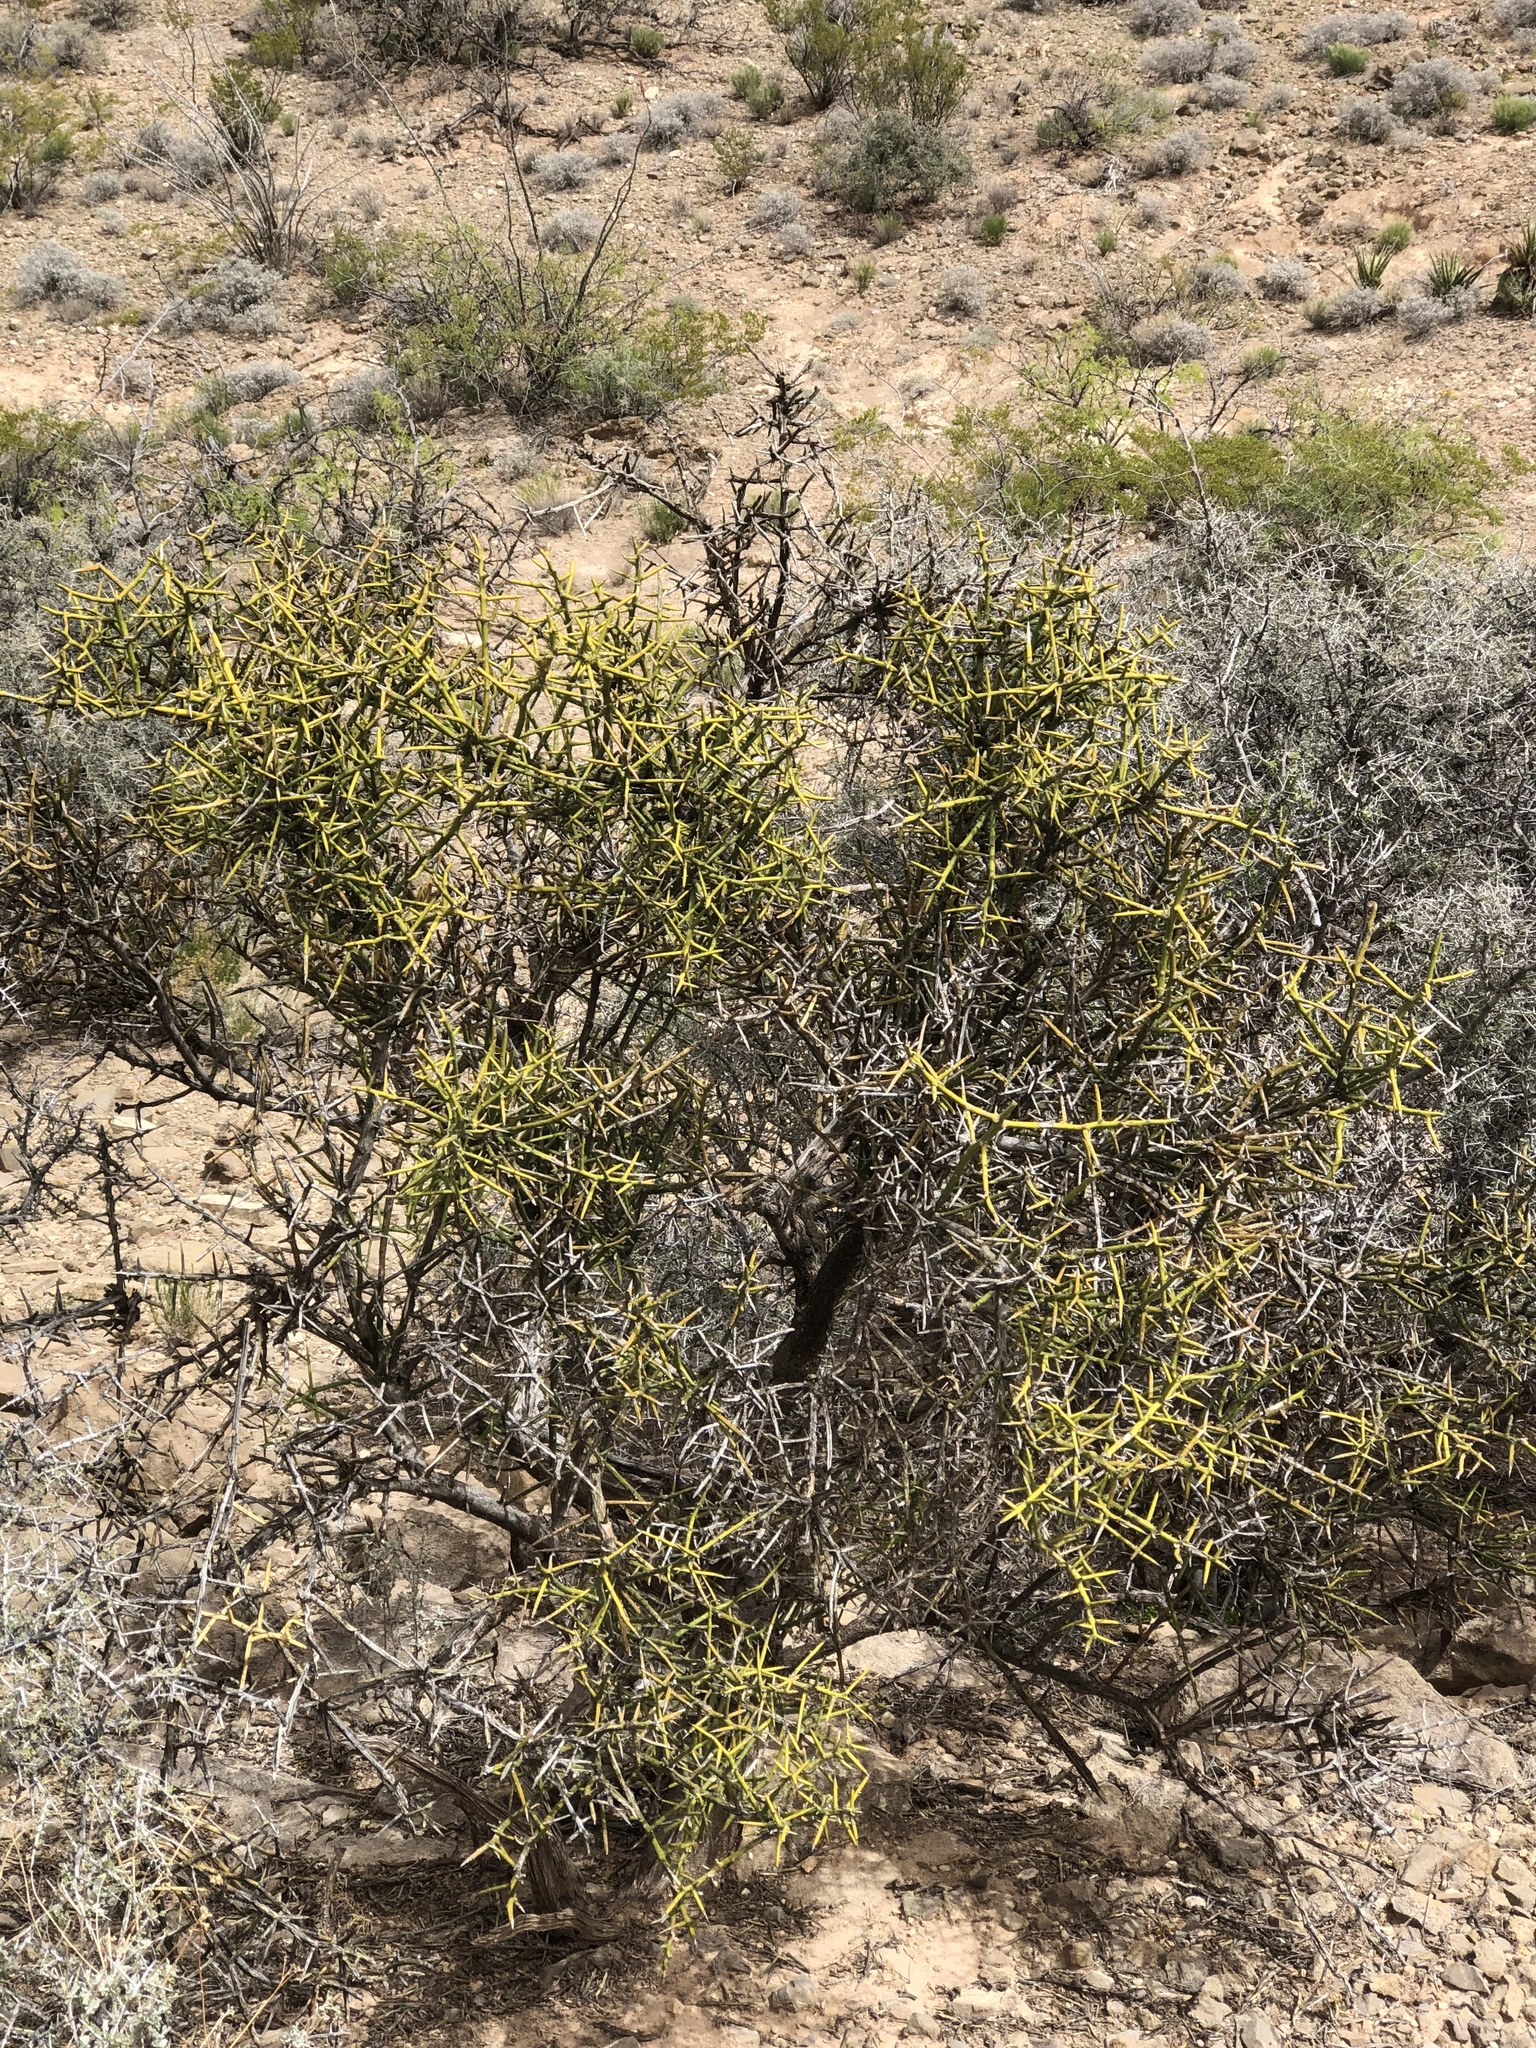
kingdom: Plantae
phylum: Tracheophyta
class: Magnoliopsida
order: Brassicales
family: Koeberliniaceae
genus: Koeberlinia
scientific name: Koeberlinia spinosa
